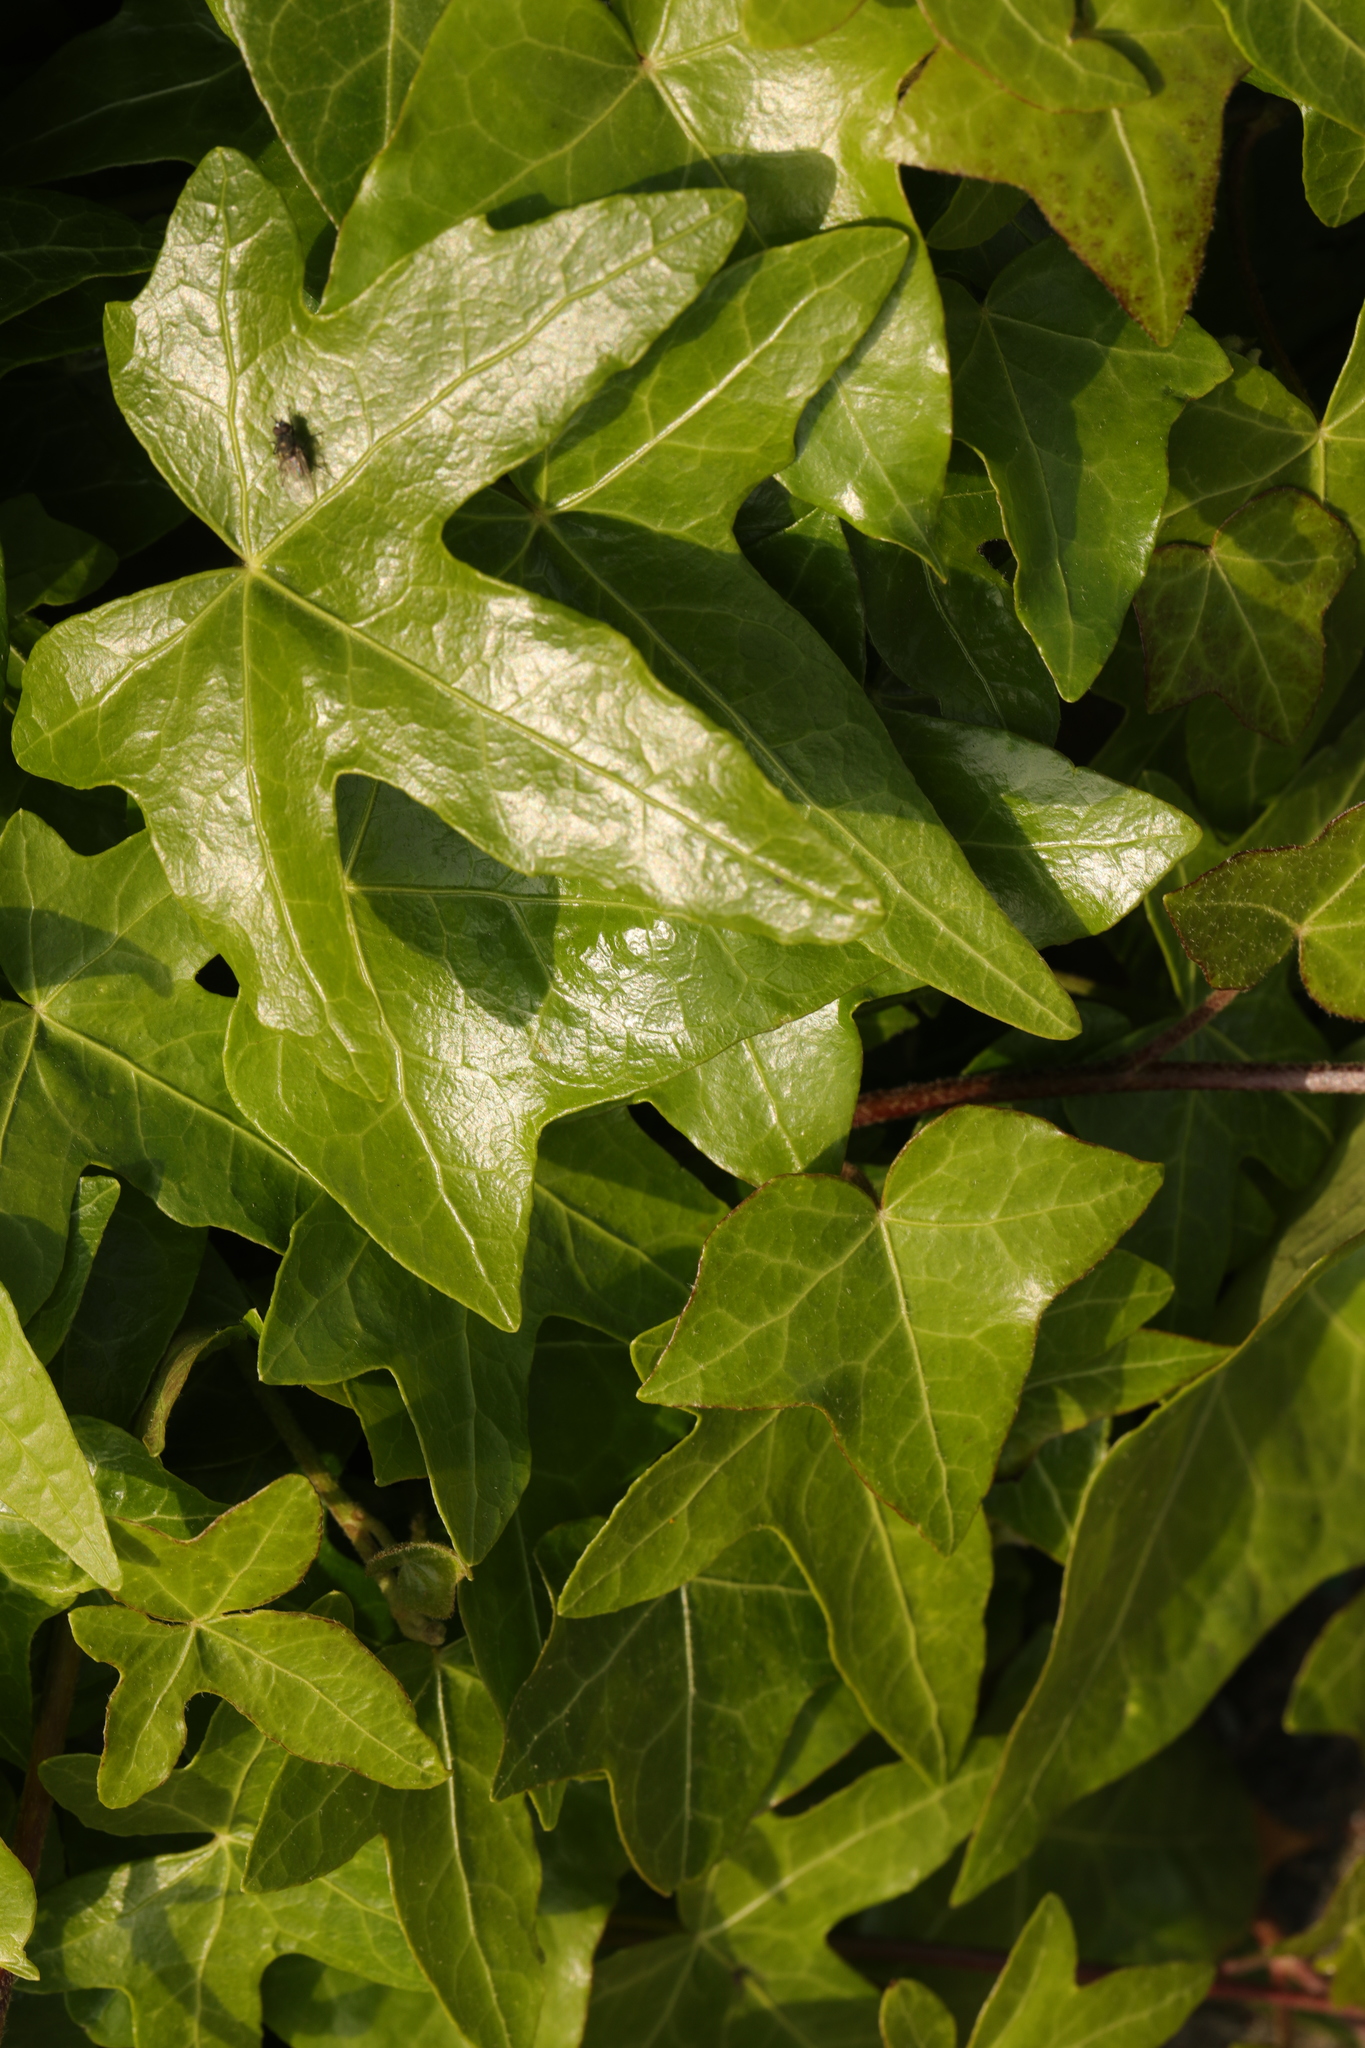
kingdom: Plantae
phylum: Tracheophyta
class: Magnoliopsida
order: Apiales
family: Araliaceae
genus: Hedera
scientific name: Hedera helix
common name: Ivy
